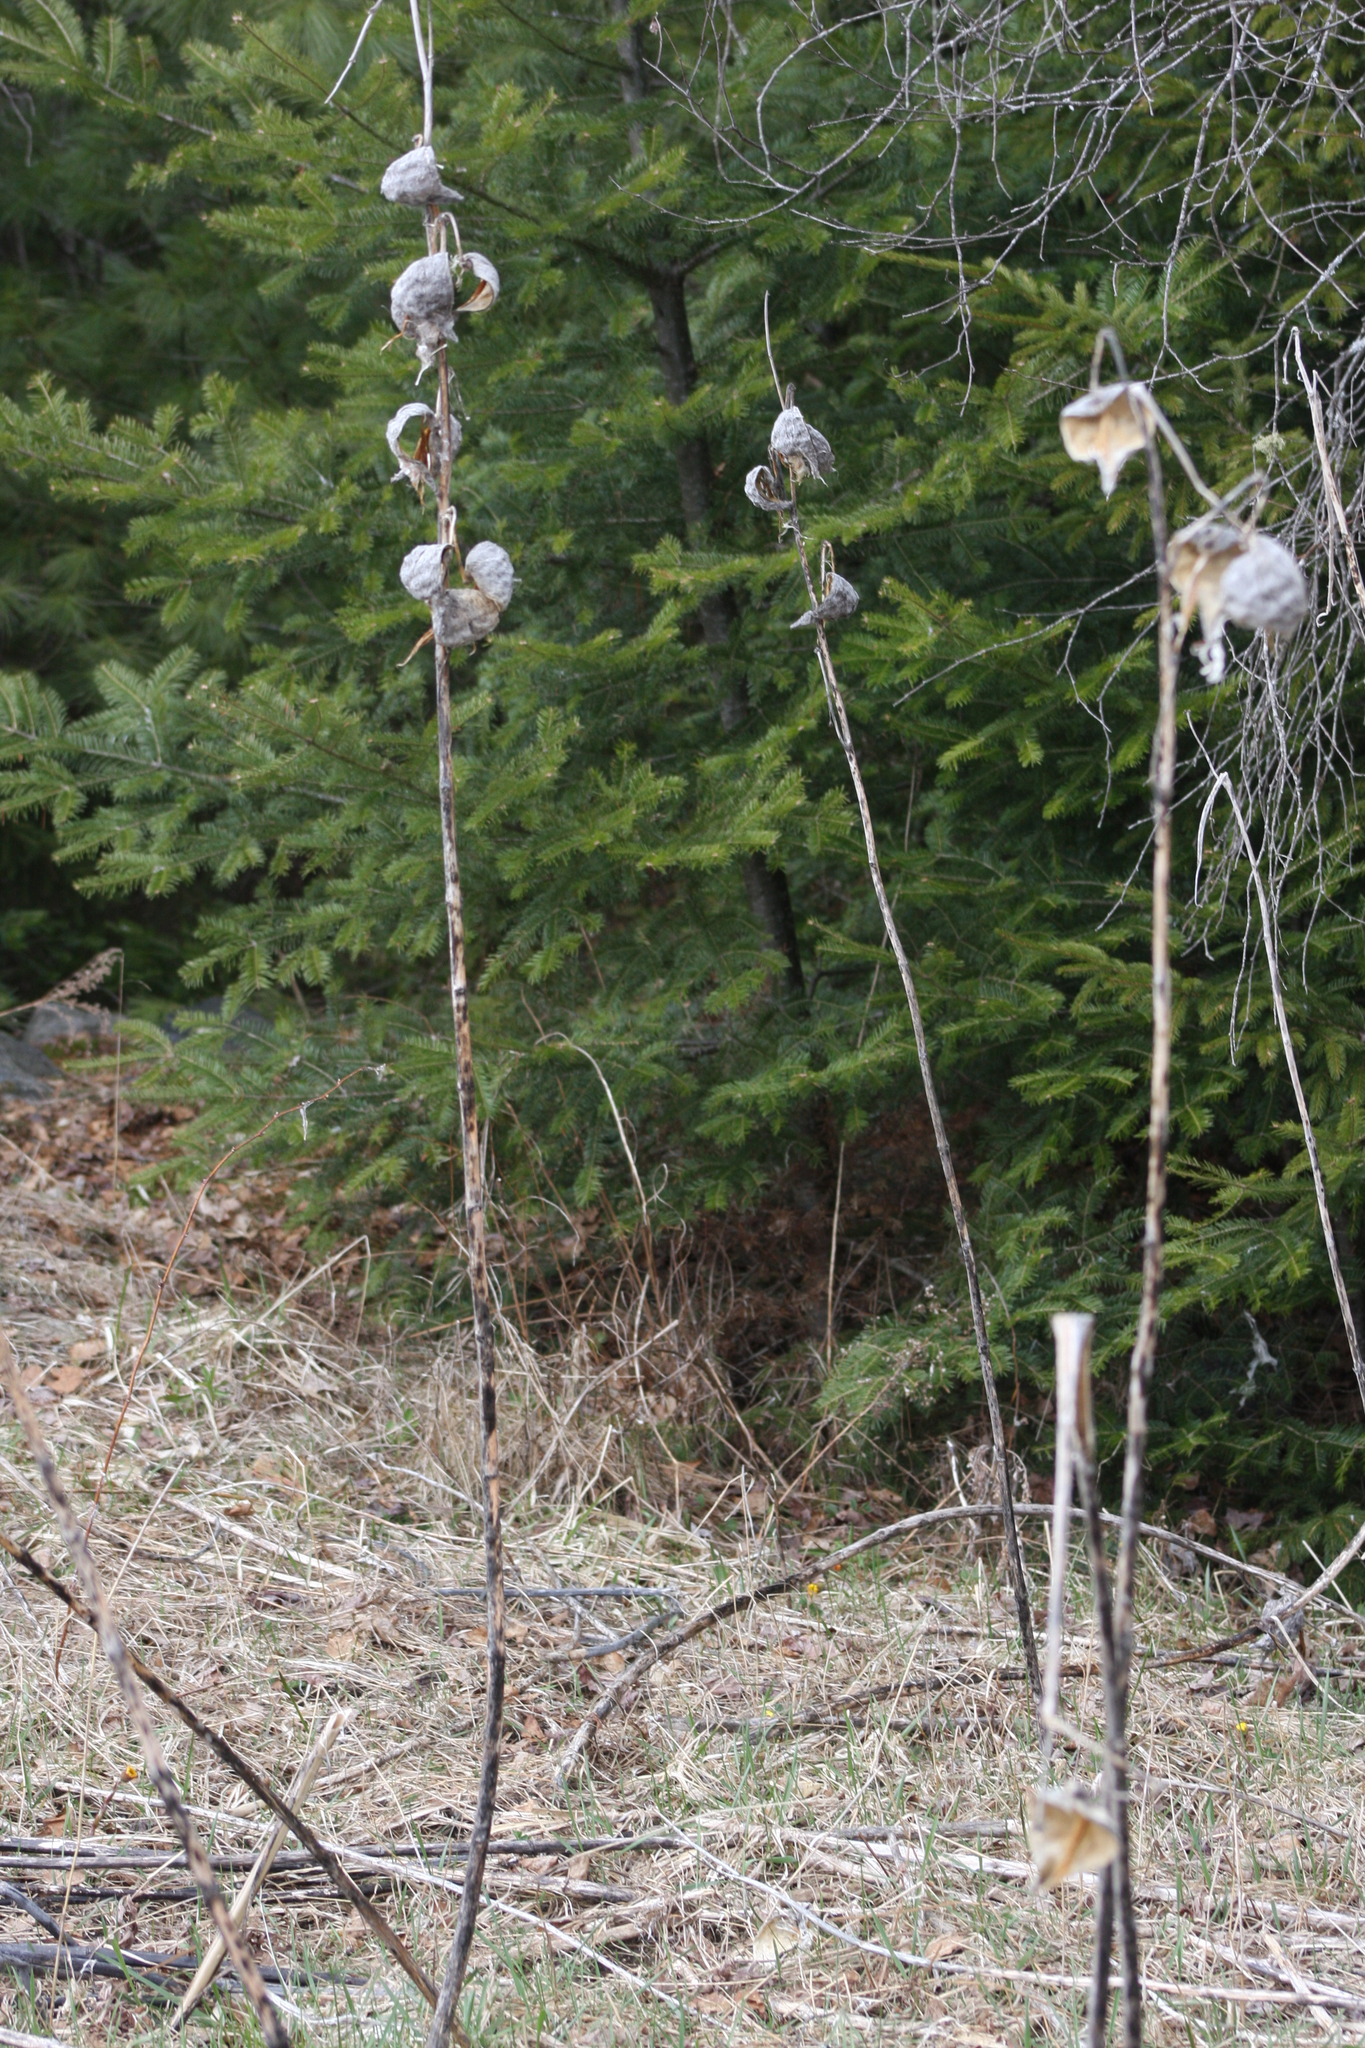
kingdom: Plantae
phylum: Tracheophyta
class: Magnoliopsida
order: Gentianales
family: Apocynaceae
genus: Asclepias
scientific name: Asclepias syriaca
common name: Common milkweed
